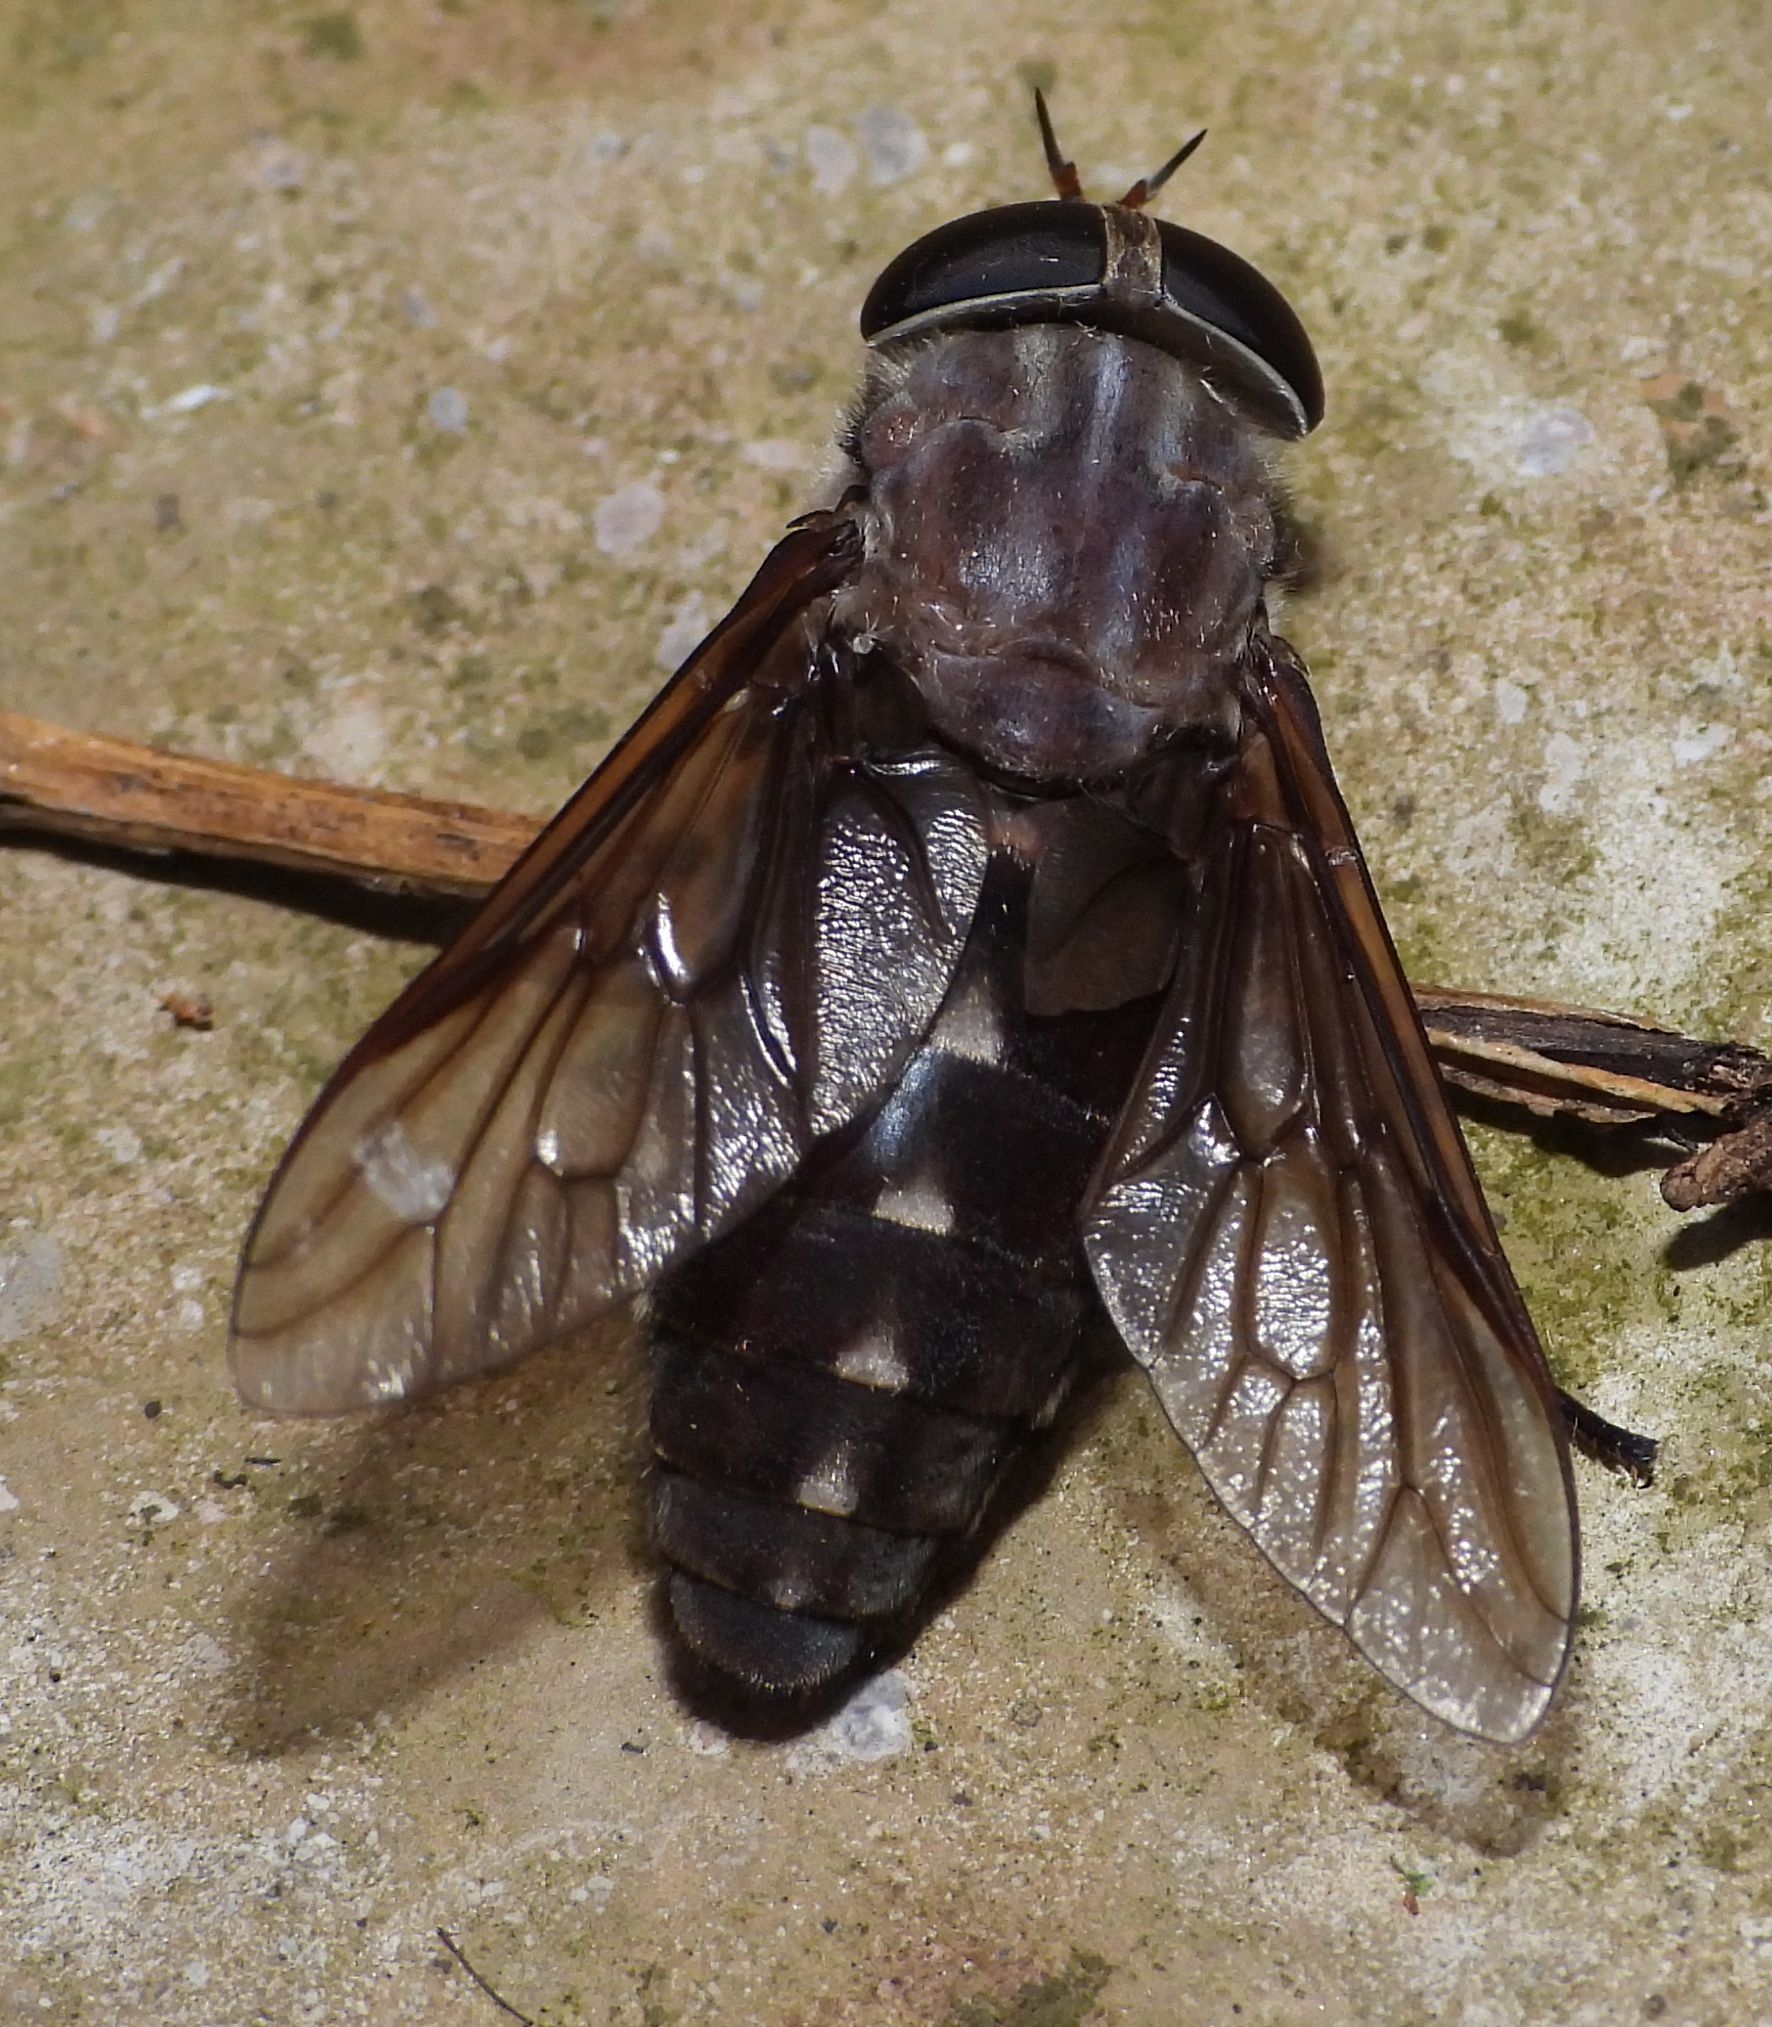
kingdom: Animalia
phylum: Arthropoda
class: Insecta
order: Diptera
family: Tabanidae
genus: Tabanus
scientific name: Tabanus catenatus
